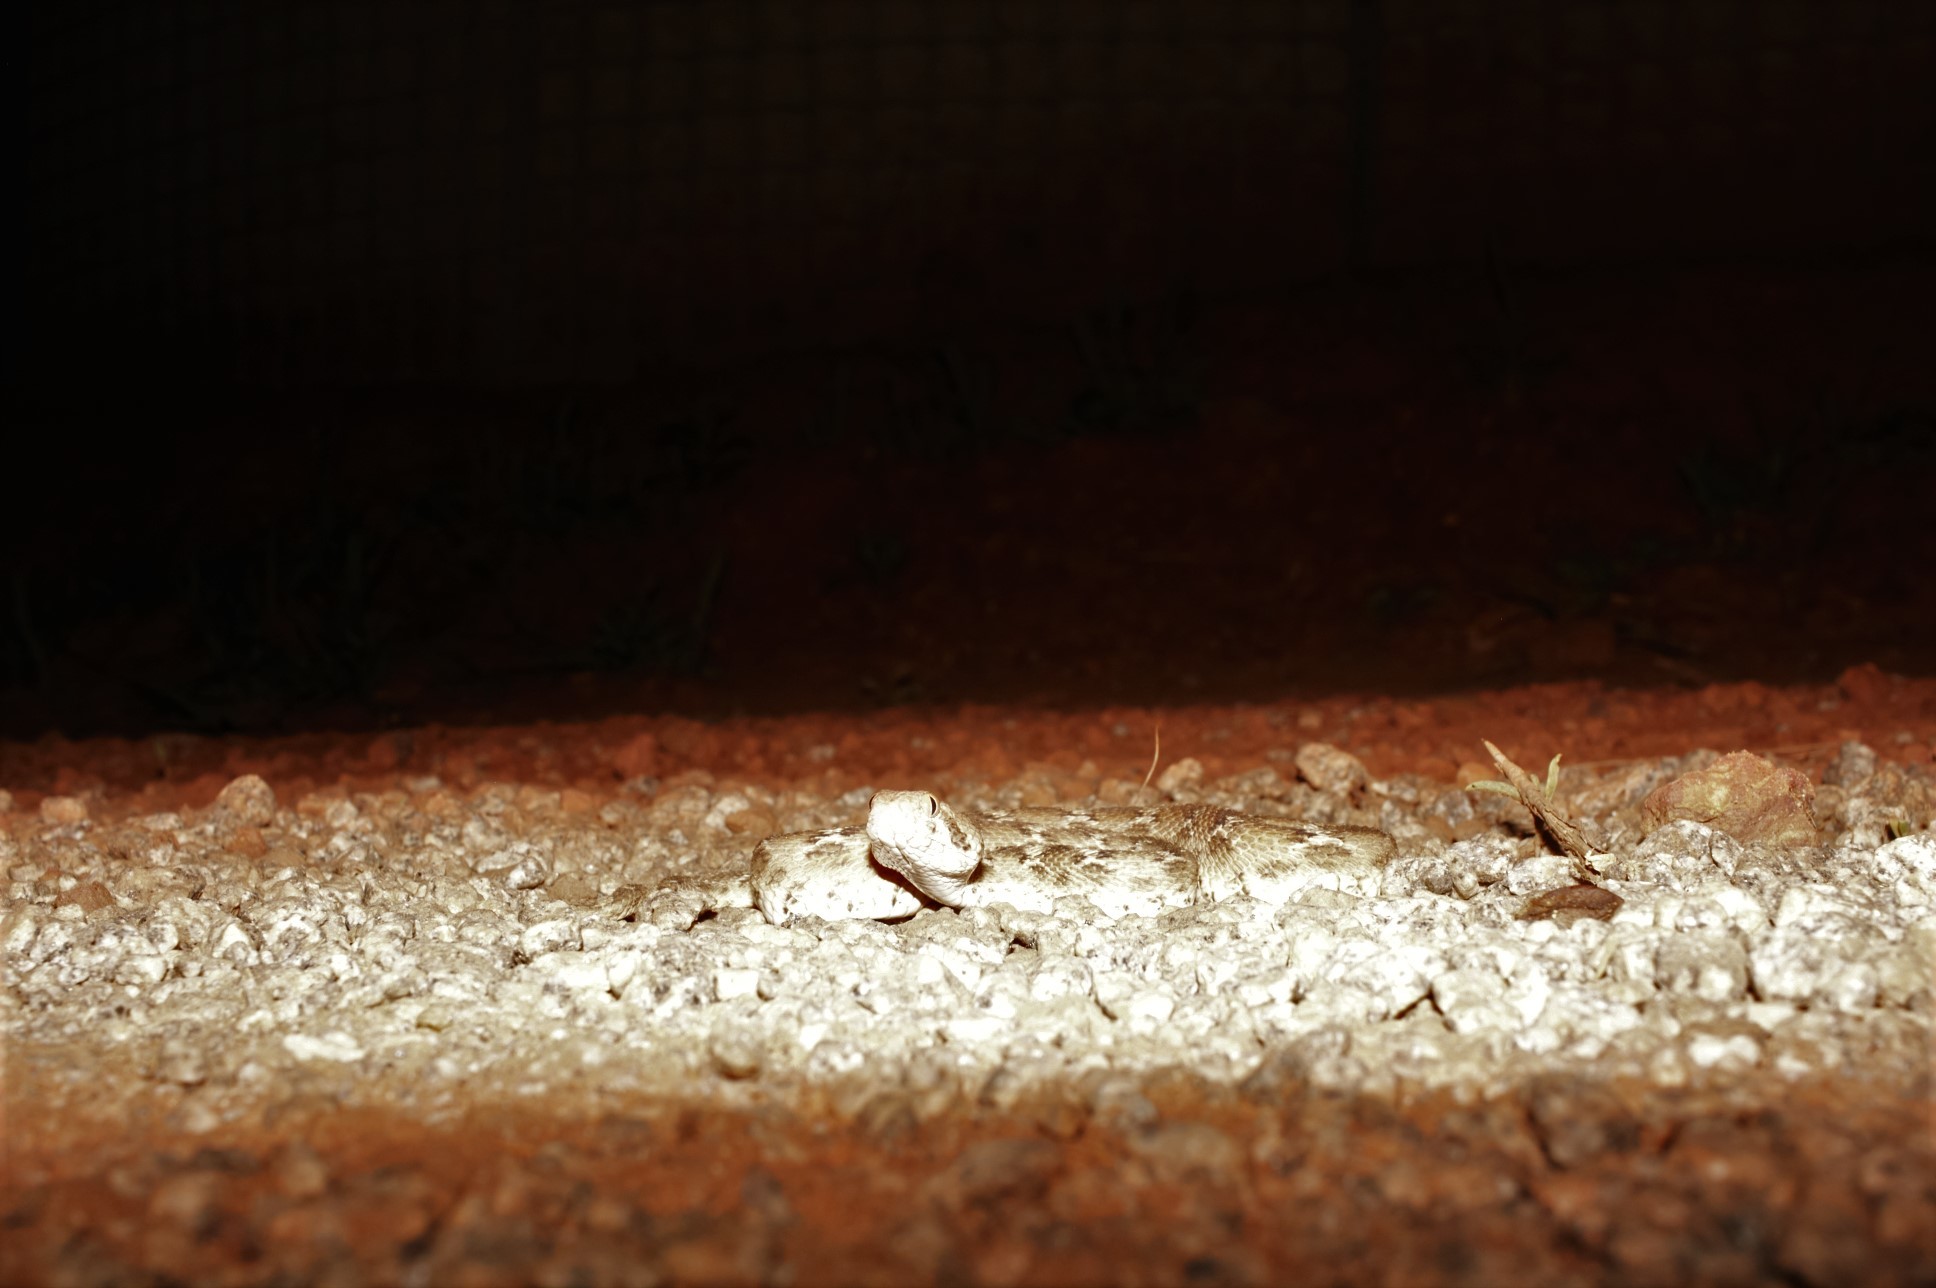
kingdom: Animalia
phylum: Chordata
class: Squamata
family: Viperidae
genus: Echis
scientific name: Echis leucogaster
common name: White-bellied carpet viper
